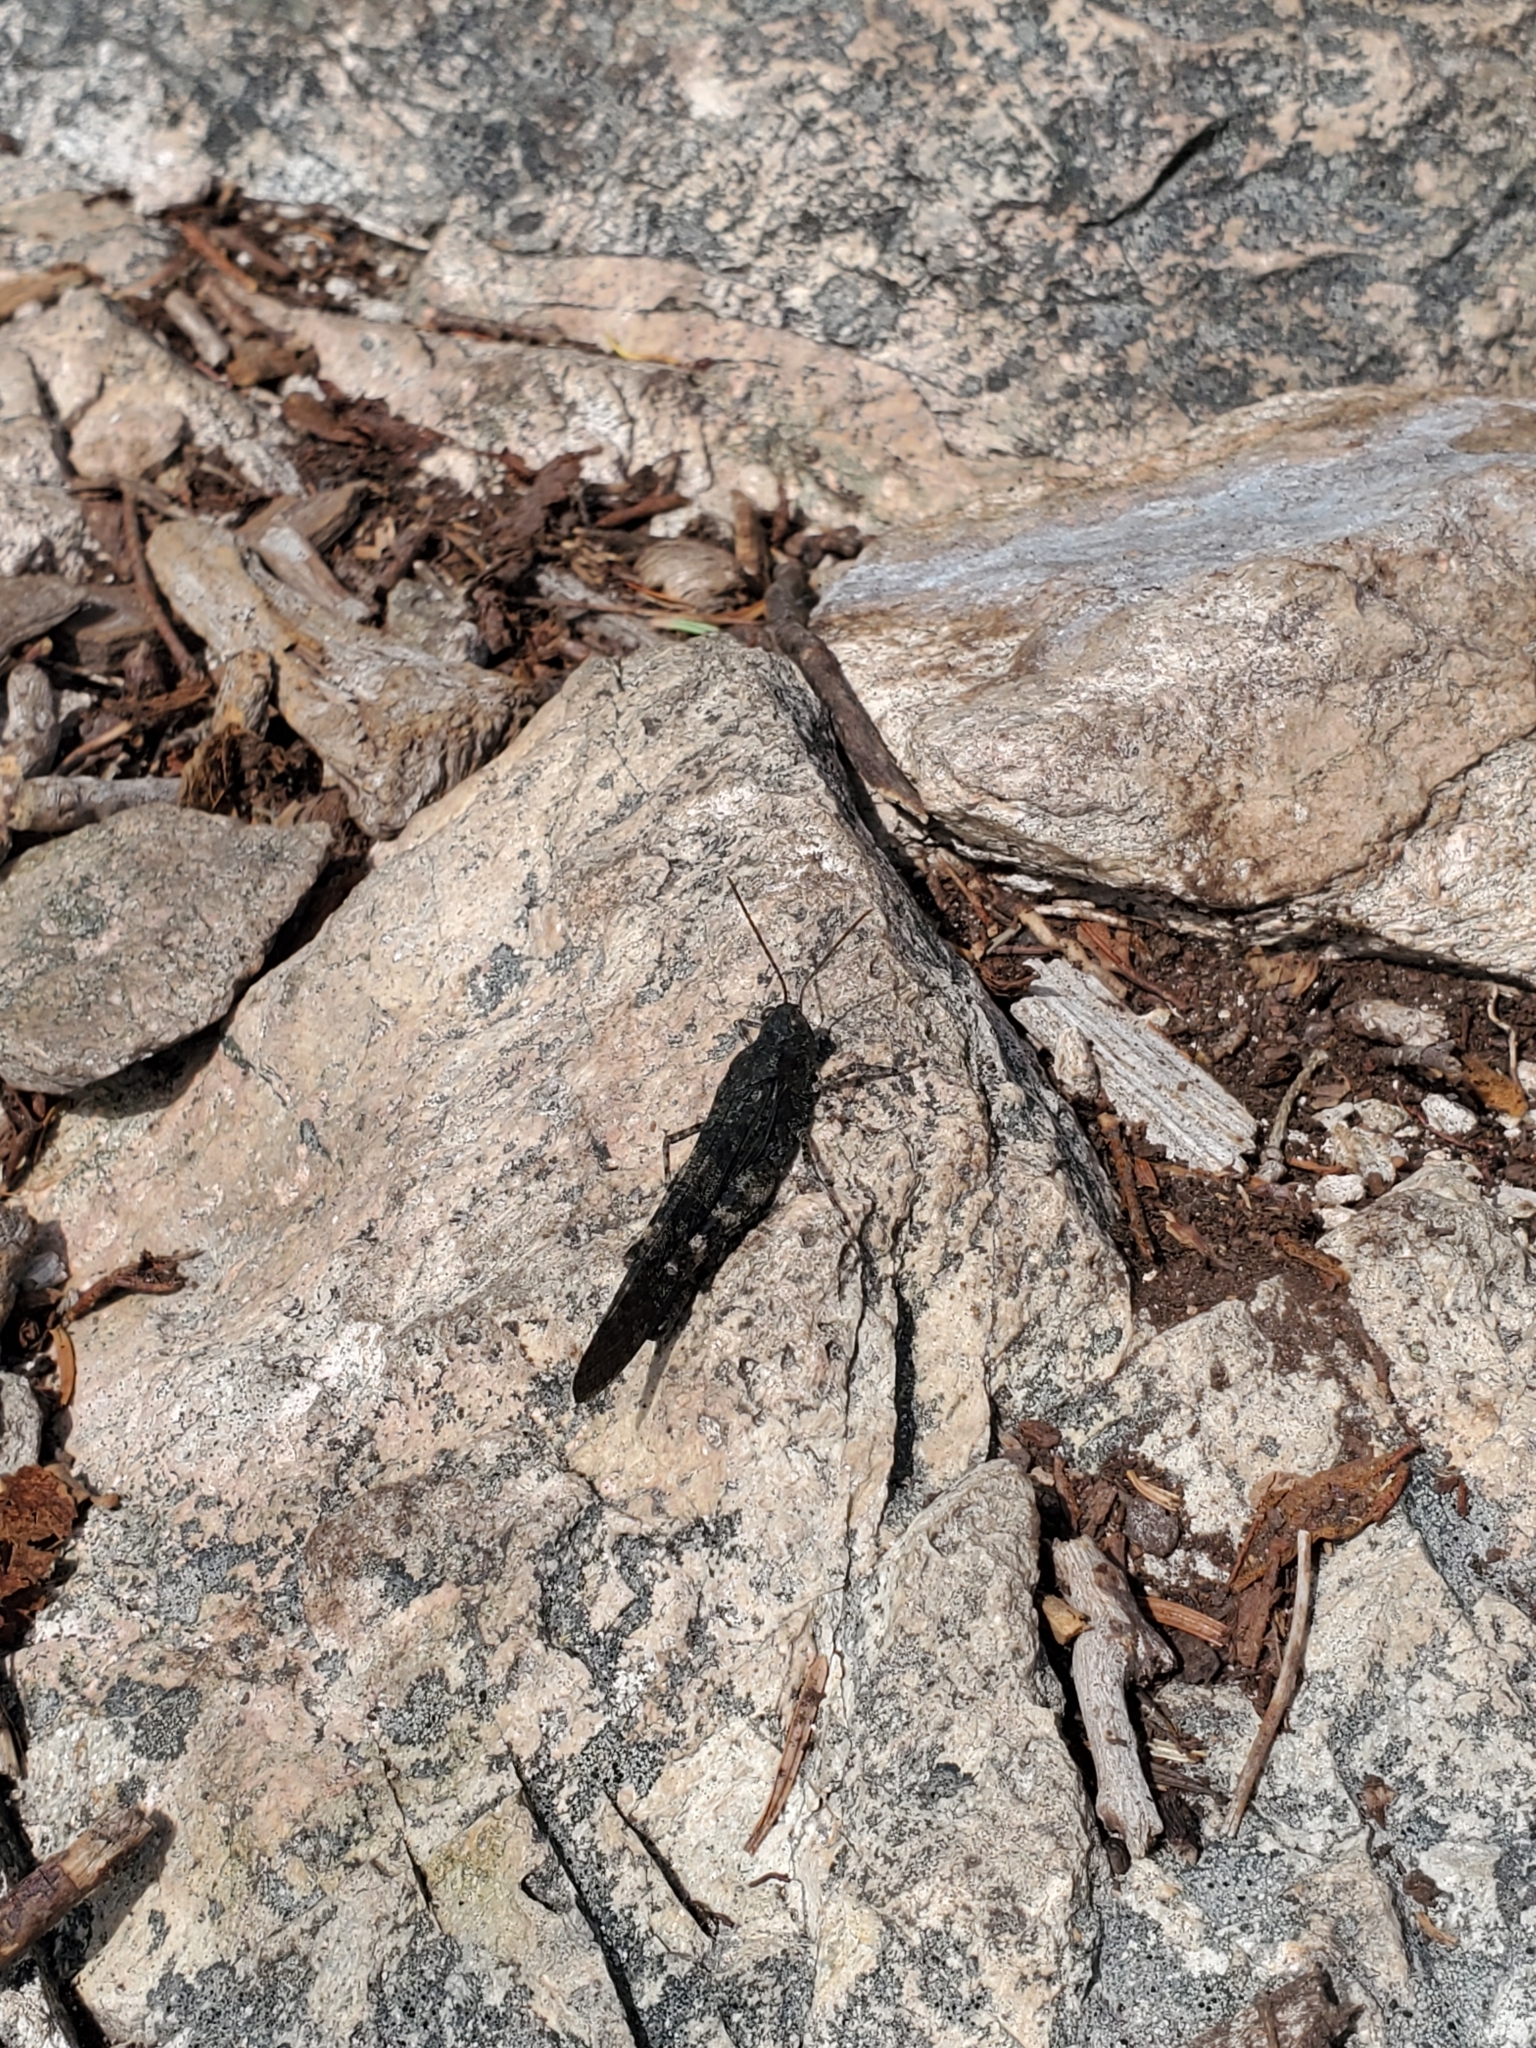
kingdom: Animalia
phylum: Arthropoda
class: Insecta
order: Orthoptera
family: Acrididae
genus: Trimerotropis
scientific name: Trimerotropis verruculata
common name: Crackling forest grasshopper
